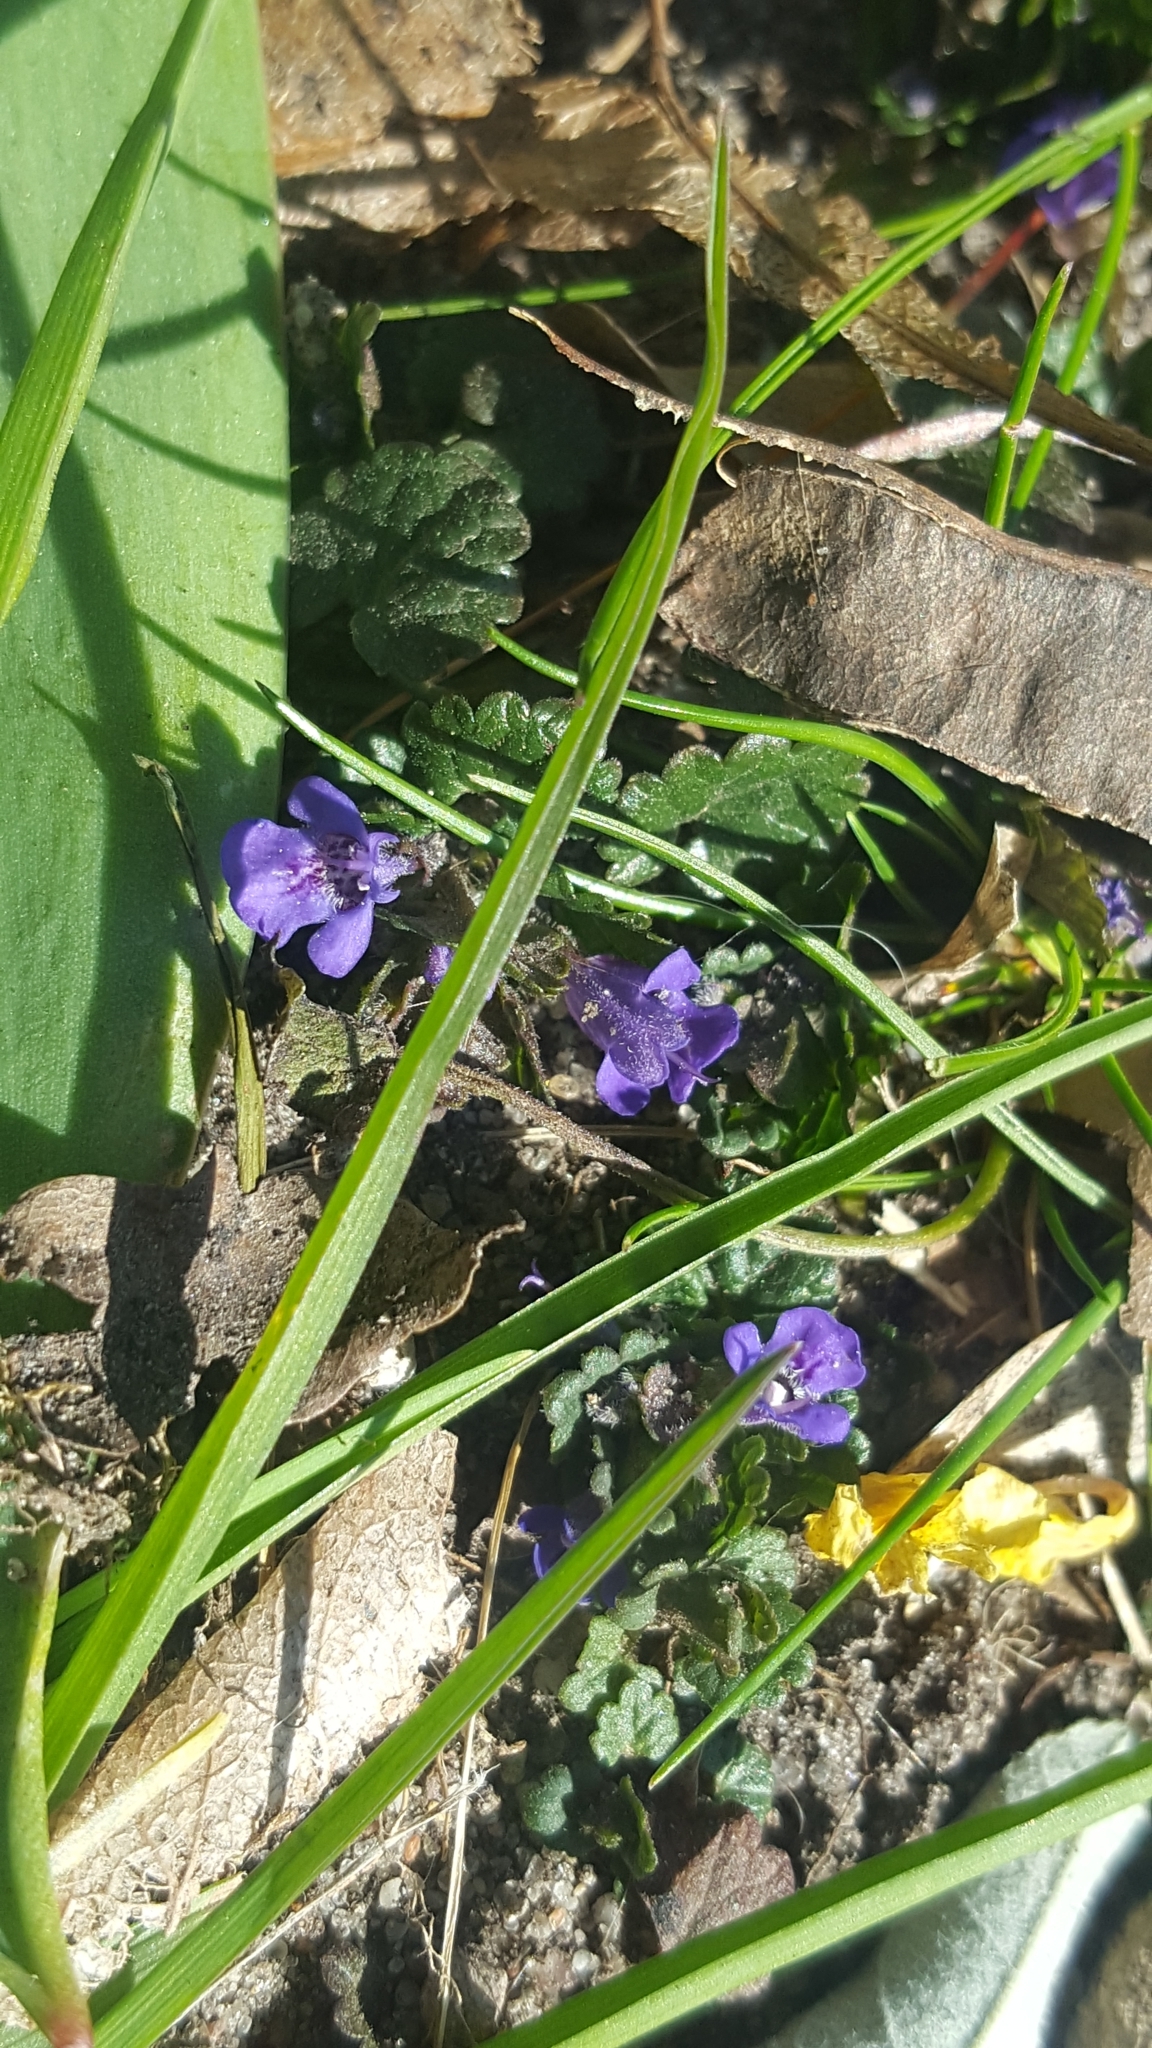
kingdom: Plantae
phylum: Tracheophyta
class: Magnoliopsida
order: Lamiales
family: Lamiaceae
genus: Glechoma
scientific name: Glechoma hederacea
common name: Ground ivy
